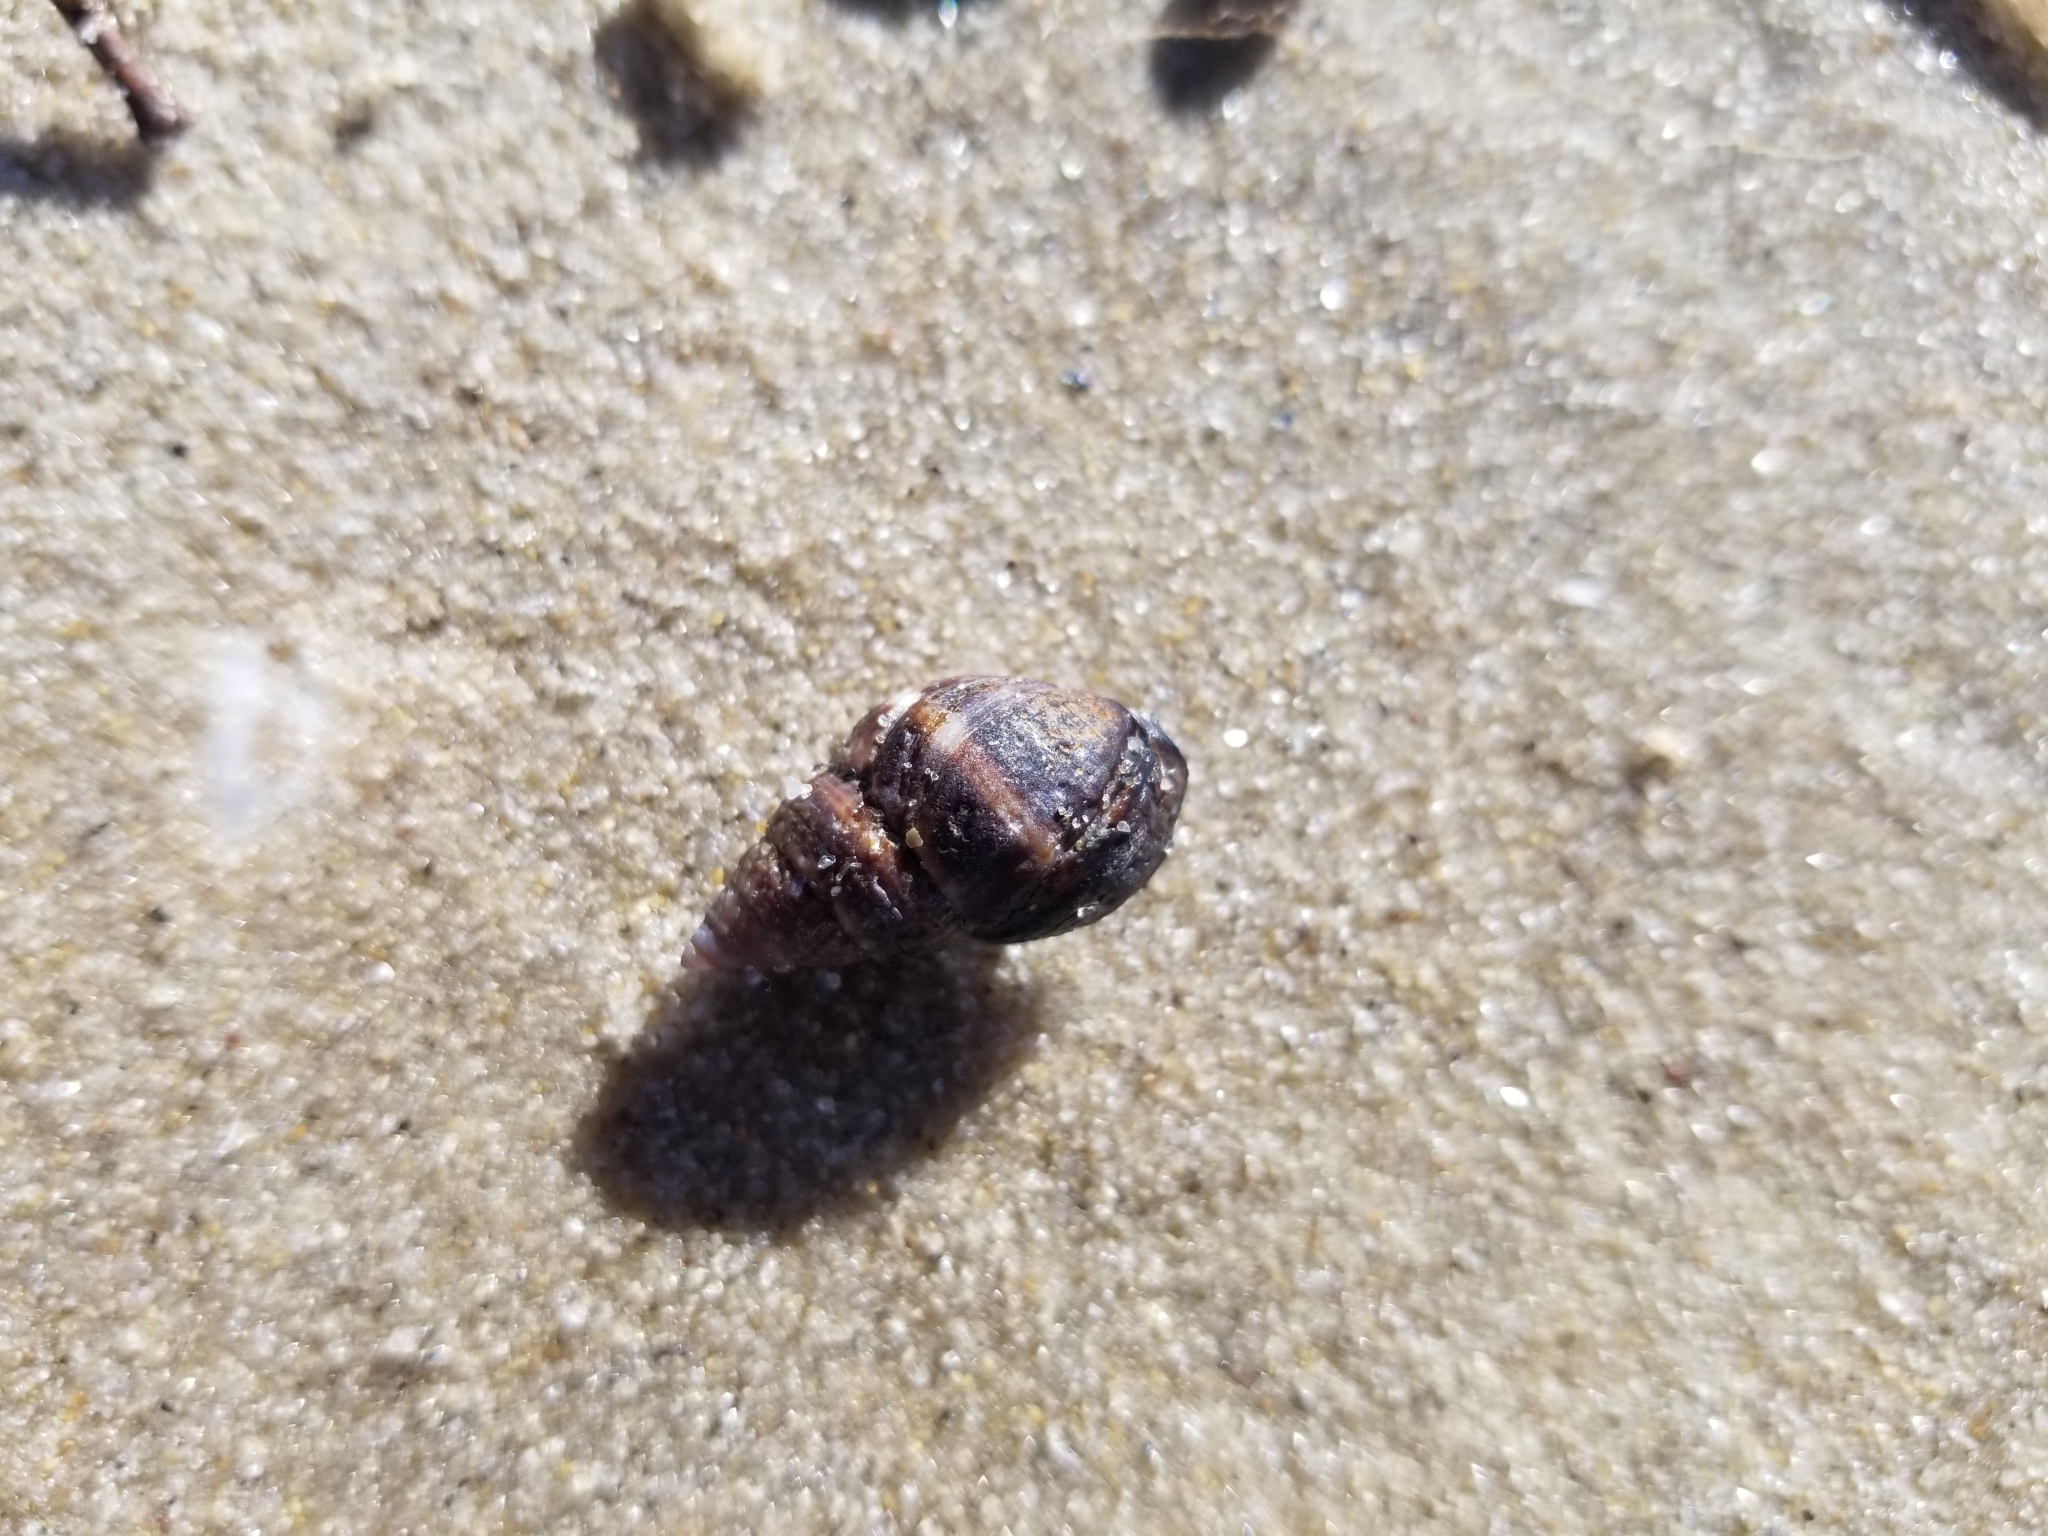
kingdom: Animalia
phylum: Mollusca
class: Gastropoda
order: Neogastropoda
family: Nassariidae
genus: Ilyanassa
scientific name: Ilyanassa obsoleta
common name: Eastern mudsnail
